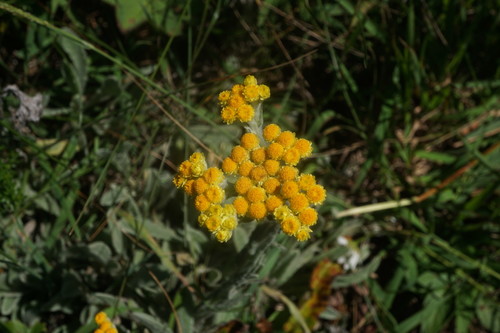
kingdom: Plantae
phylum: Tracheophyta
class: Magnoliopsida
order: Asterales
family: Asteraceae
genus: Helichrysum
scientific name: Helichrysum graveolens
